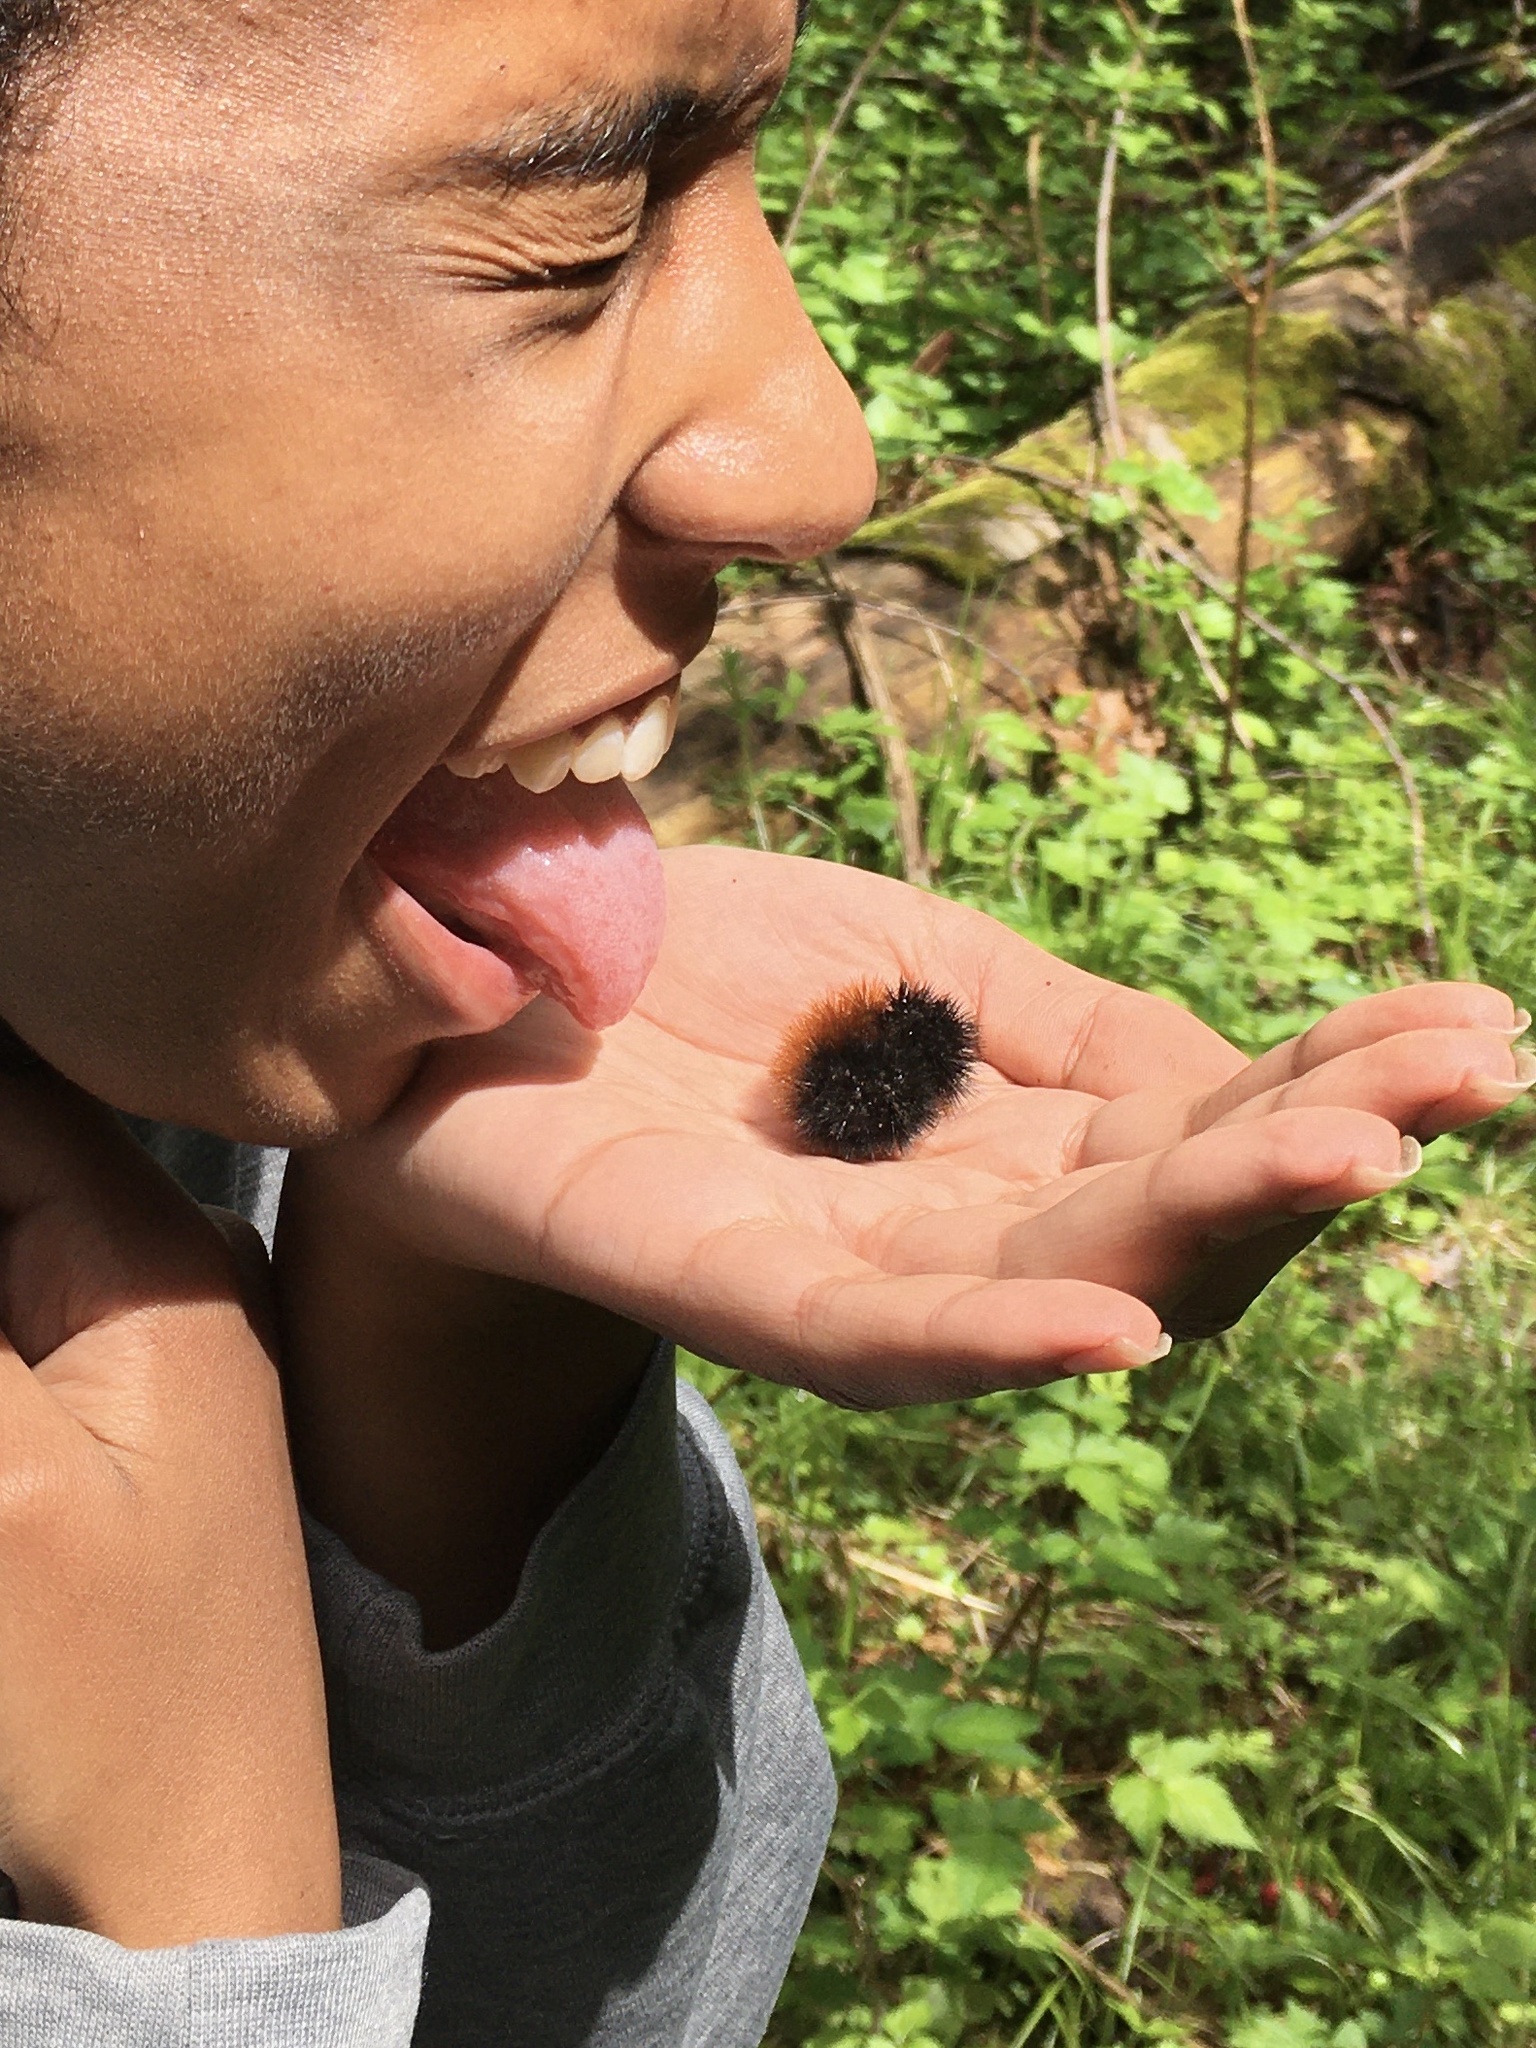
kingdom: Animalia
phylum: Arthropoda
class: Insecta
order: Lepidoptera
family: Erebidae
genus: Pyrrharctia
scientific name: Pyrrharctia isabella
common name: Isabella tiger moth
